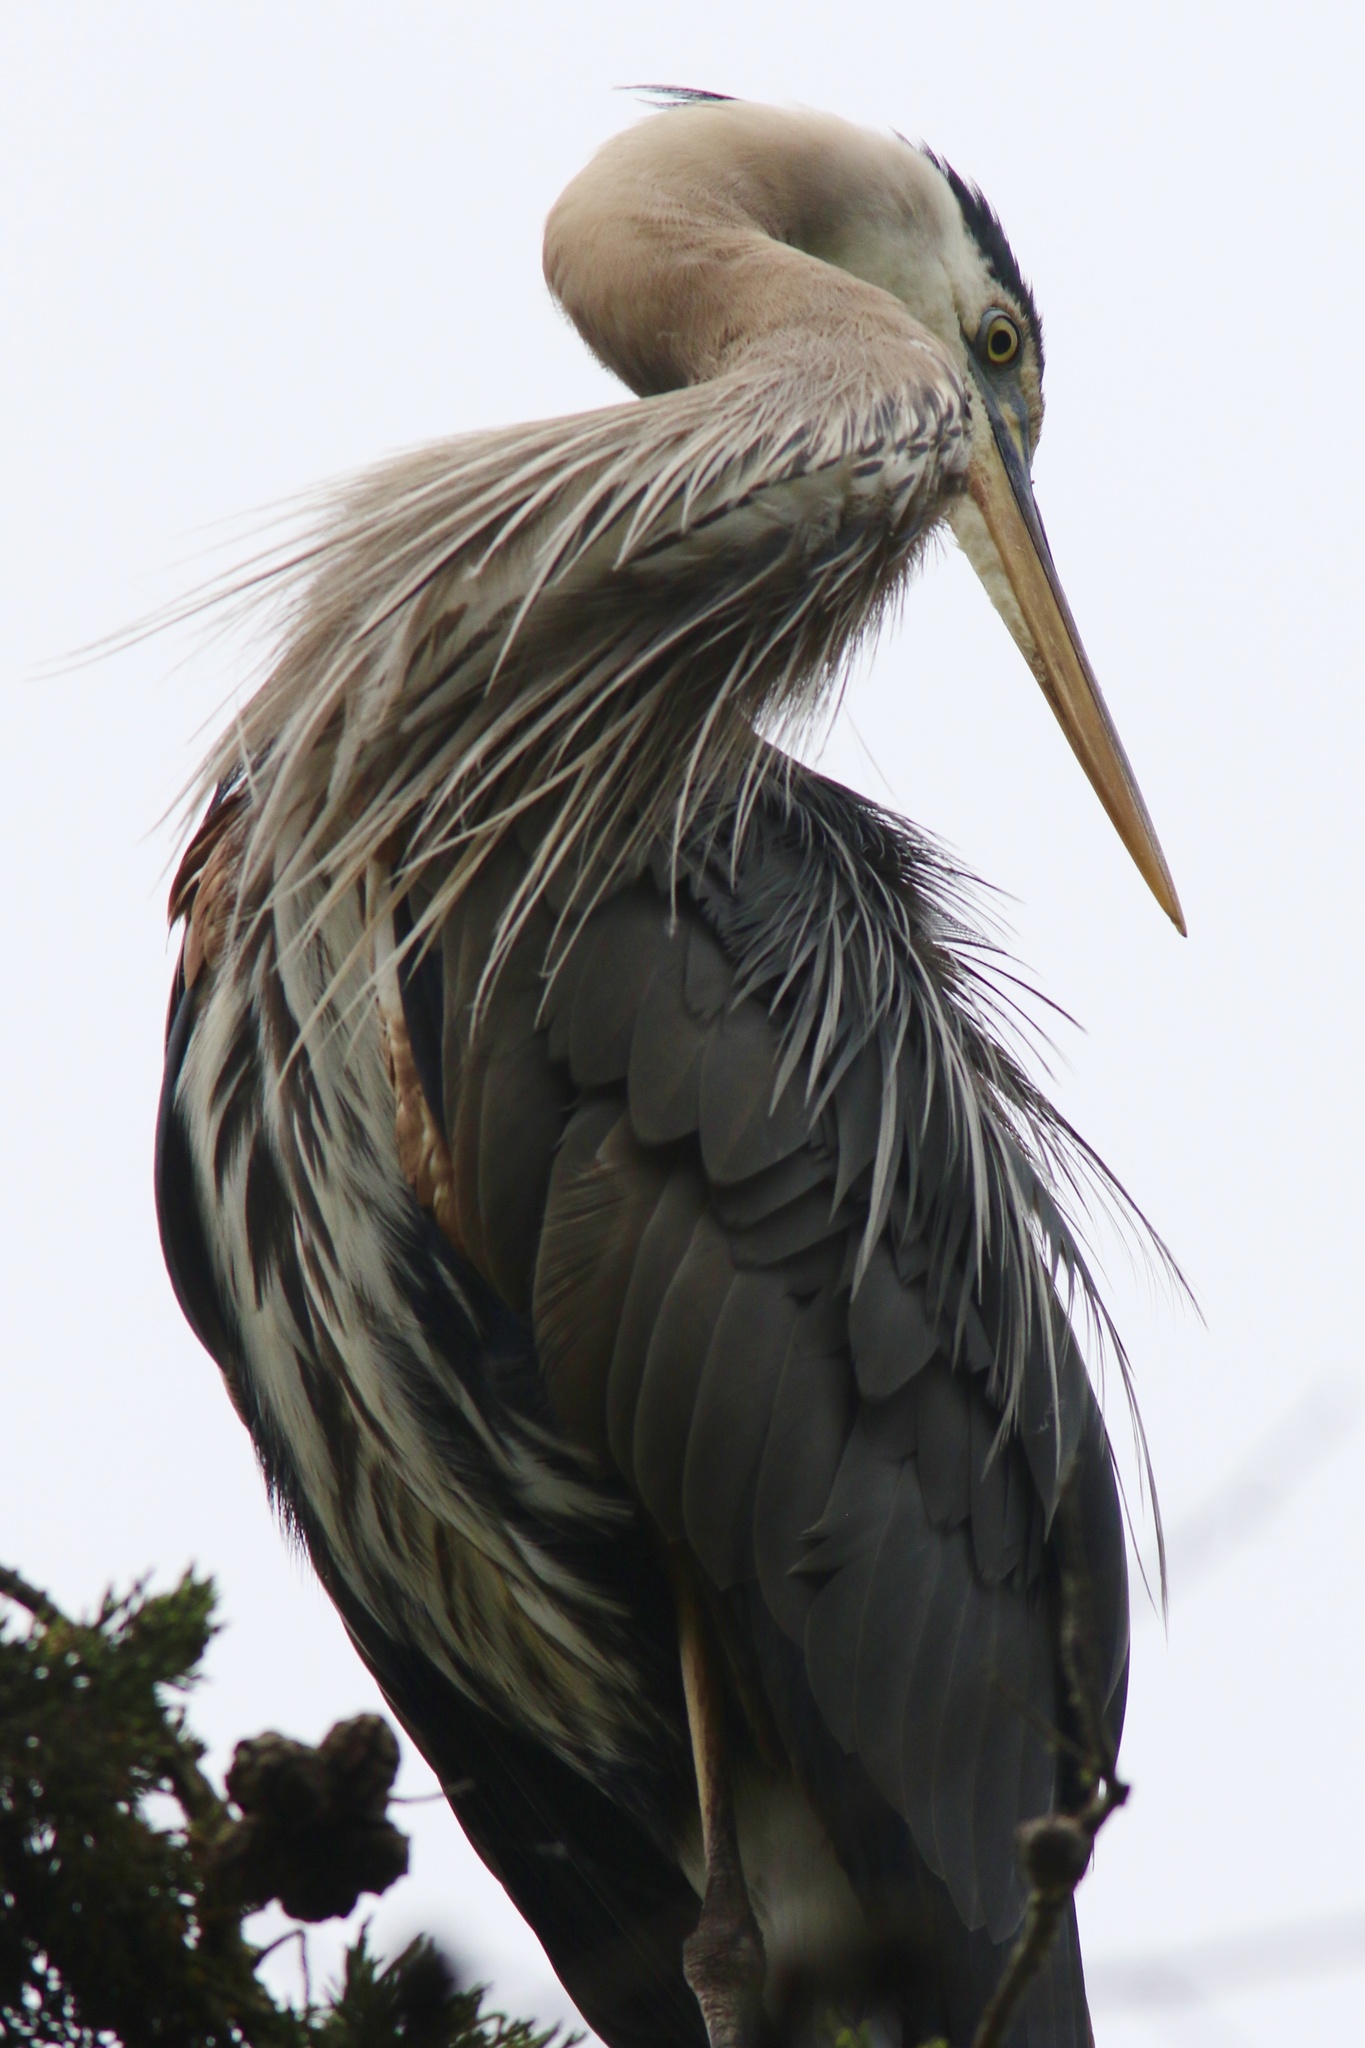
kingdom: Animalia
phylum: Chordata
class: Aves
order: Pelecaniformes
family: Ardeidae
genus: Ardea
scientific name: Ardea herodias
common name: Great blue heron
